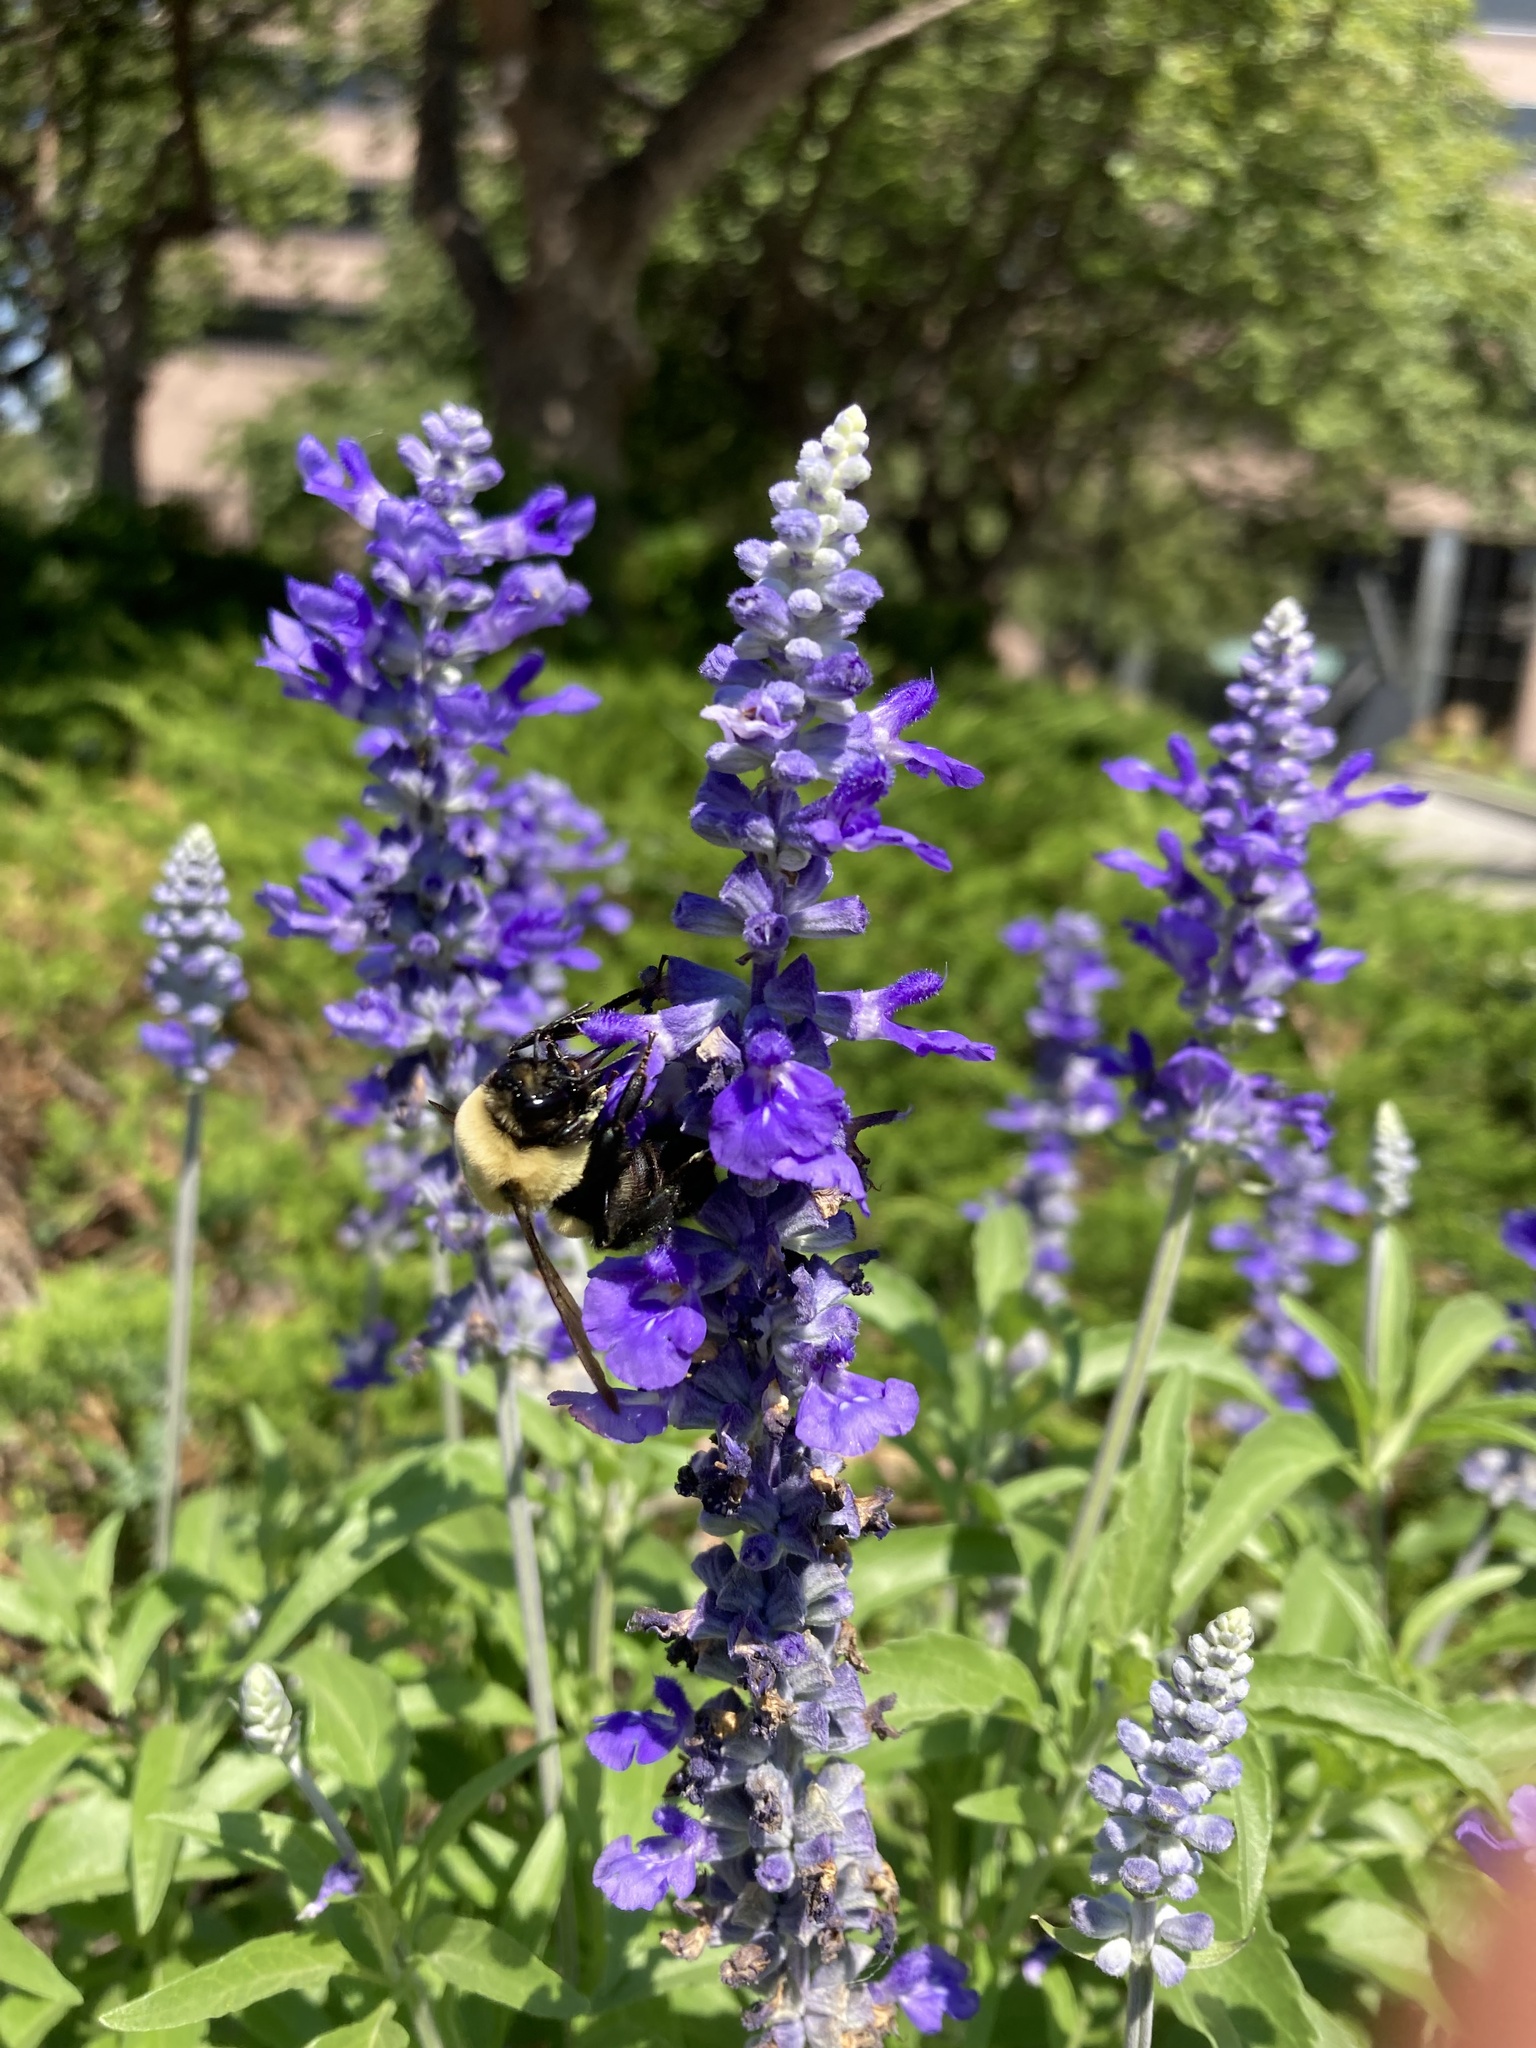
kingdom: Animalia
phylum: Arthropoda
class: Insecta
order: Hymenoptera
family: Apidae
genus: Bombus
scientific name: Bombus griseocollis
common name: Brown-belted bumble bee
